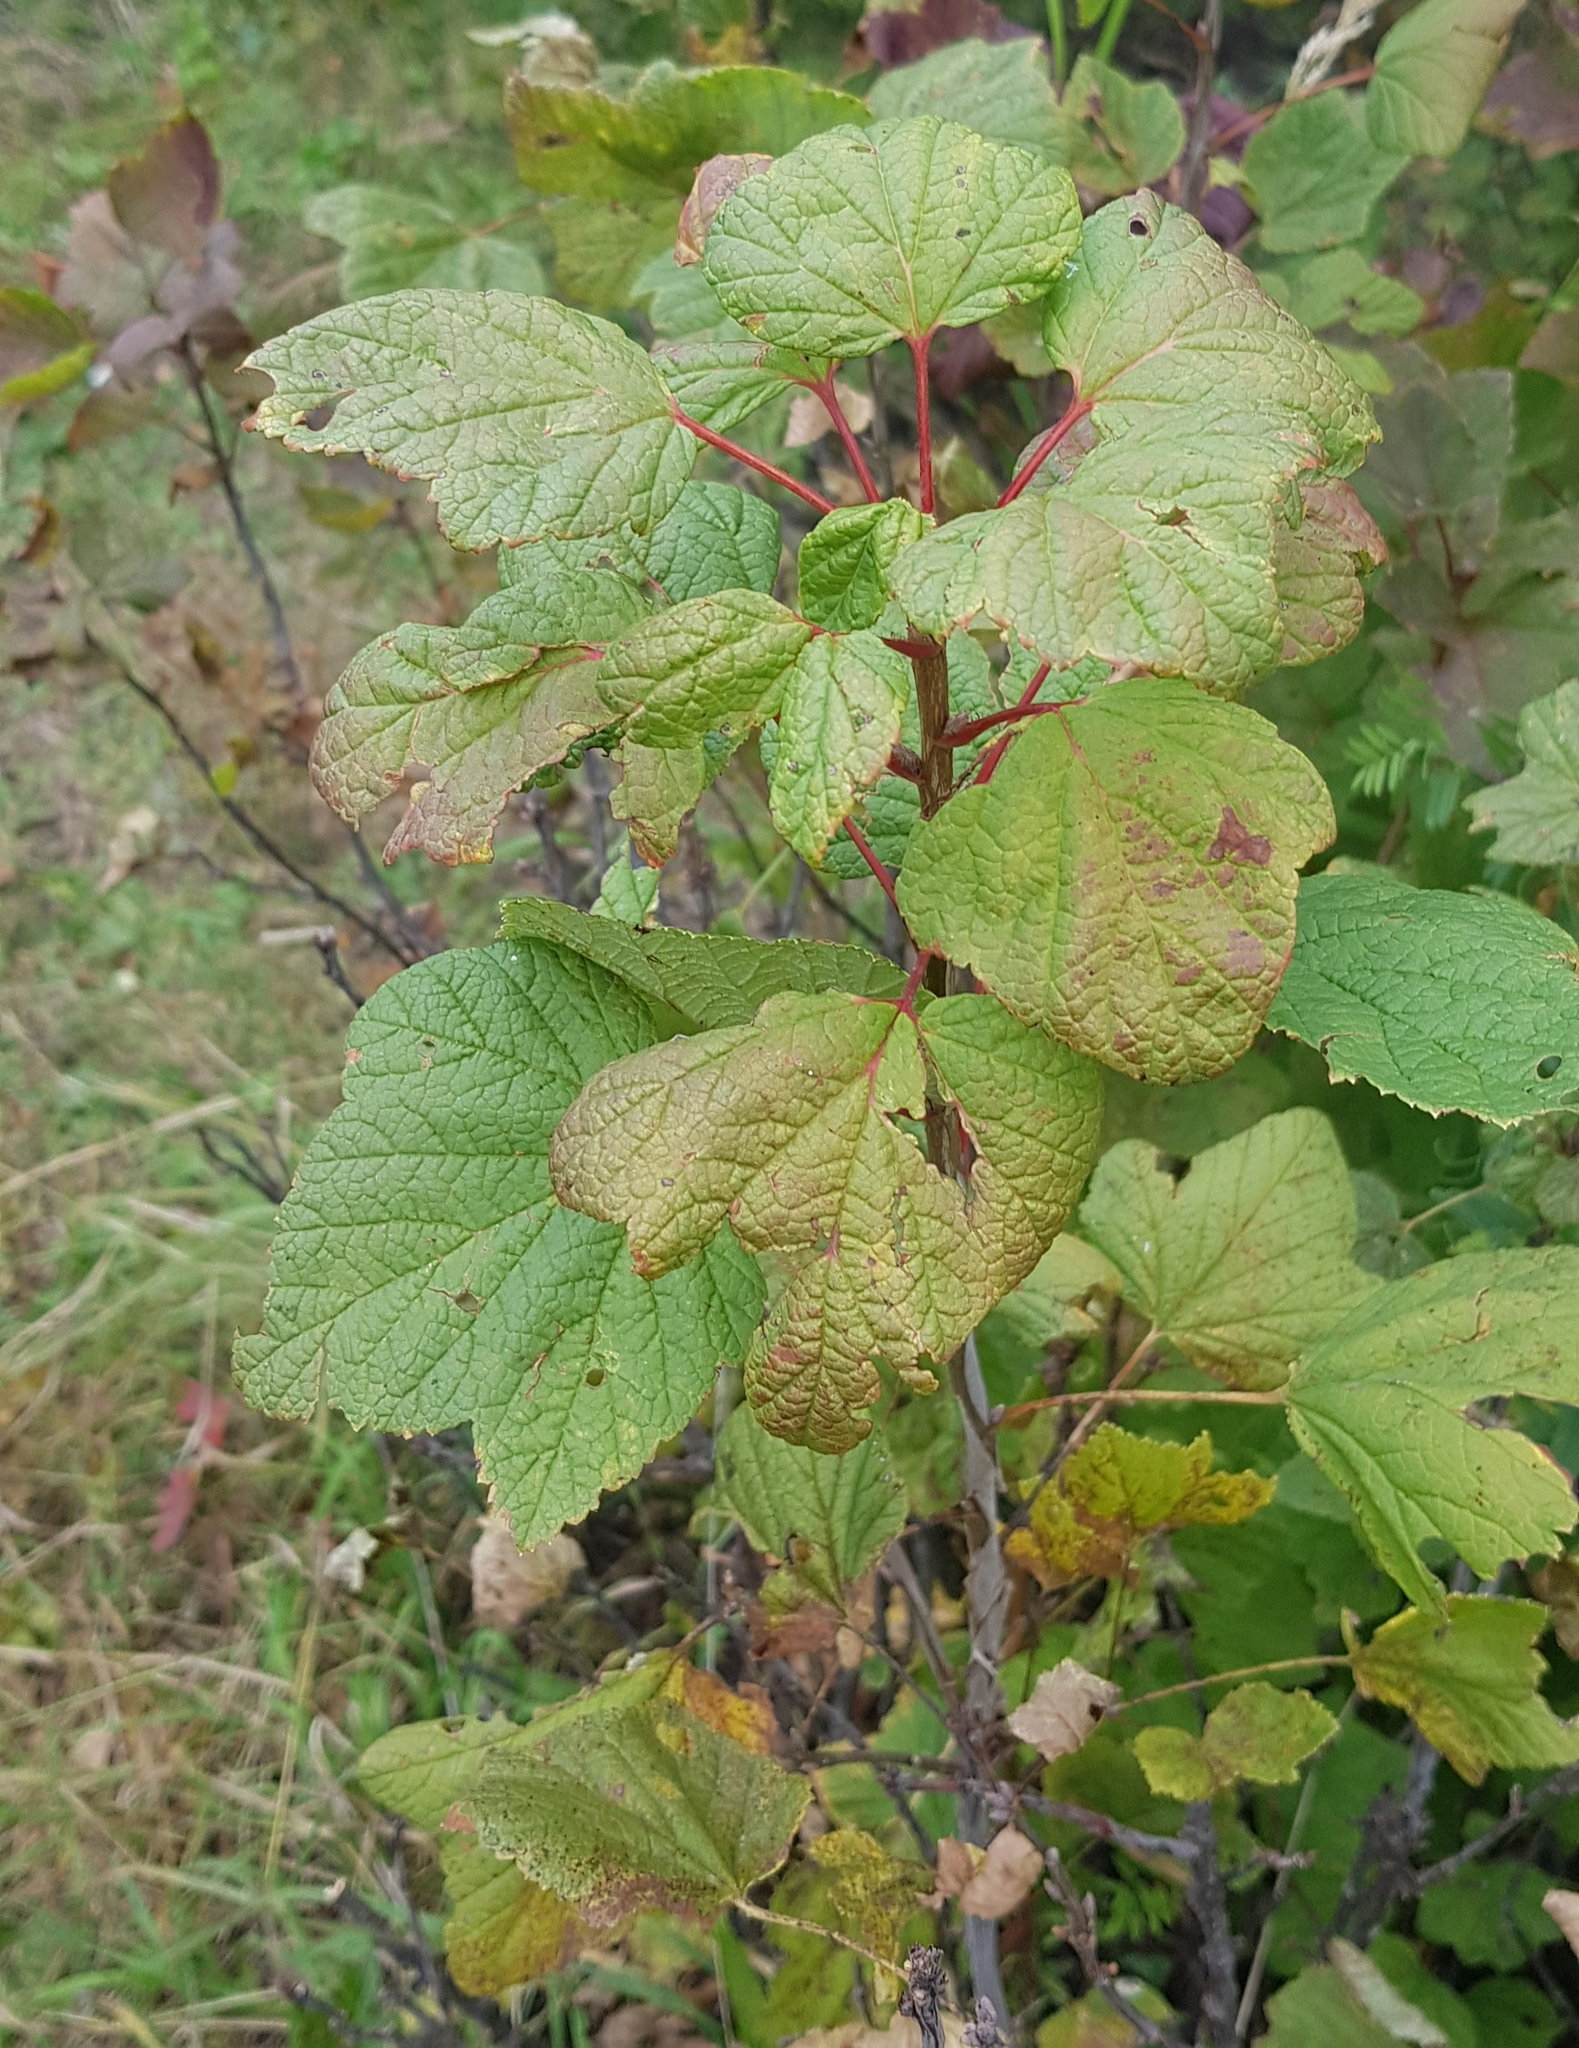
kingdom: Plantae
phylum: Tracheophyta
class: Magnoliopsida
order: Saxifragales
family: Grossulariaceae
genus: Ribes
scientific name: Ribes petraeum
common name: Rock currant
